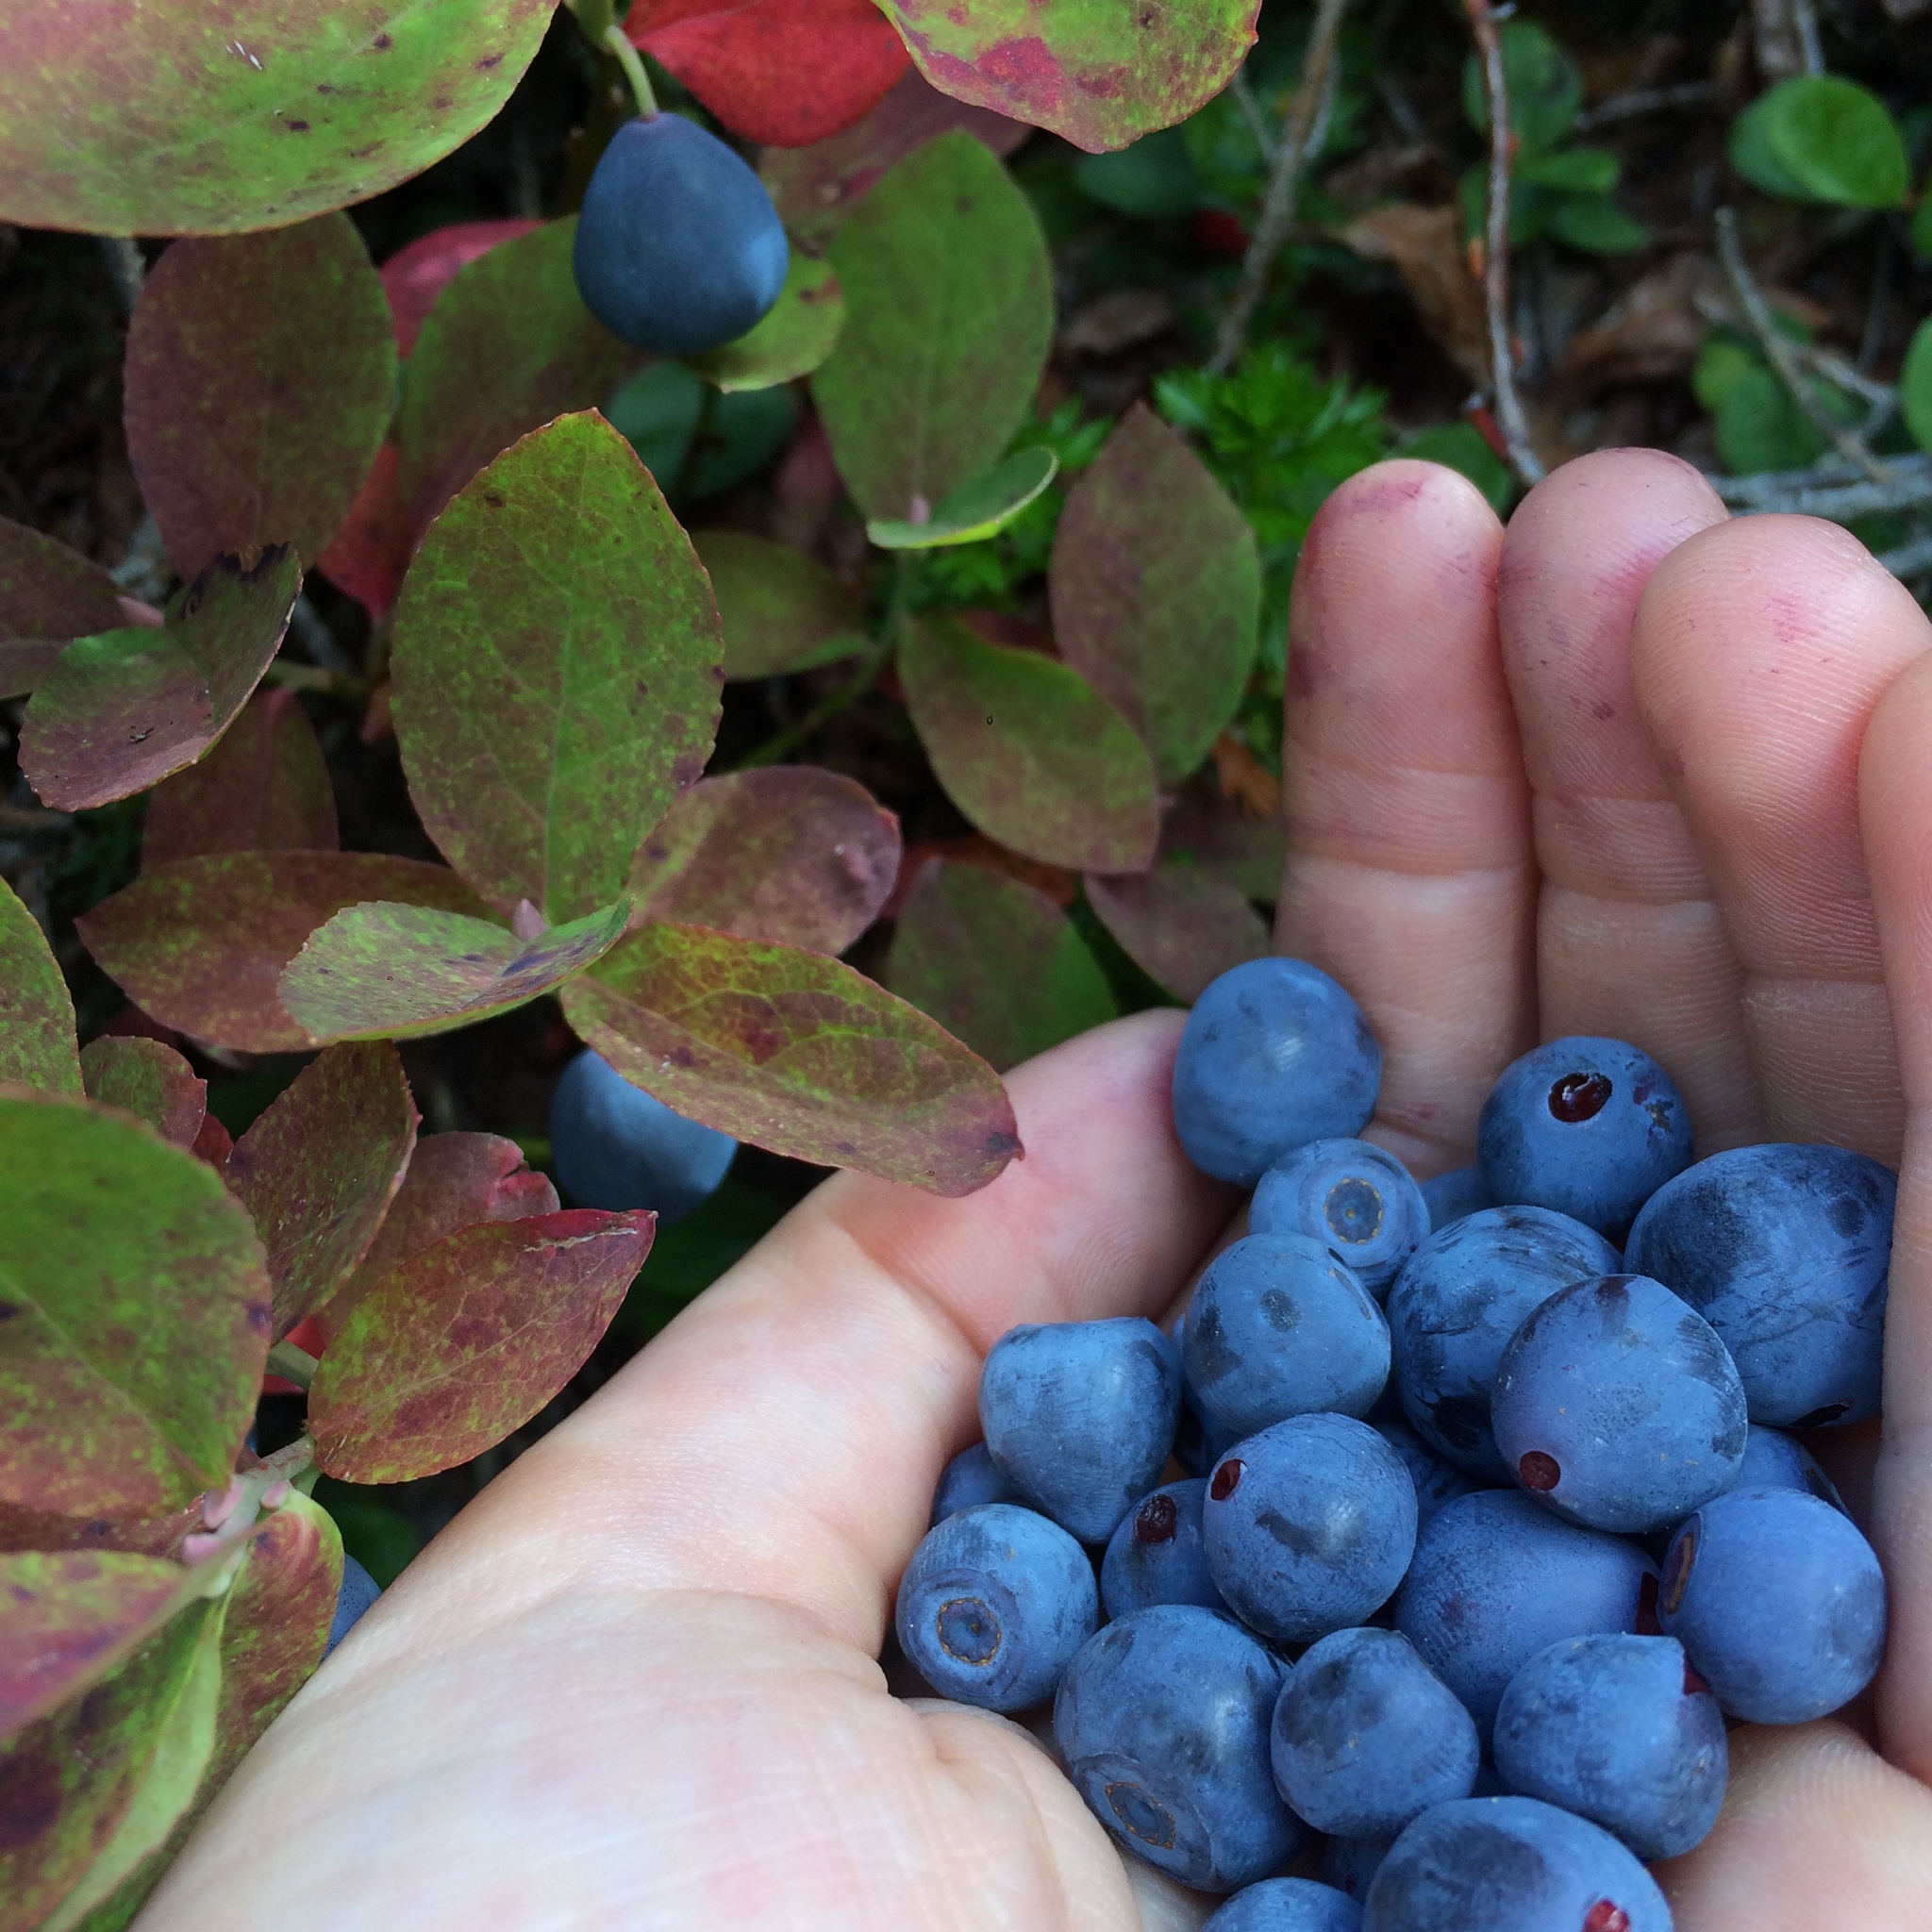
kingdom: Plantae
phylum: Tracheophyta
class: Magnoliopsida
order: Ericales
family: Ericaceae
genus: Vaccinium
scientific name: Vaccinium deliciosum
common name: Cascade bilberry
